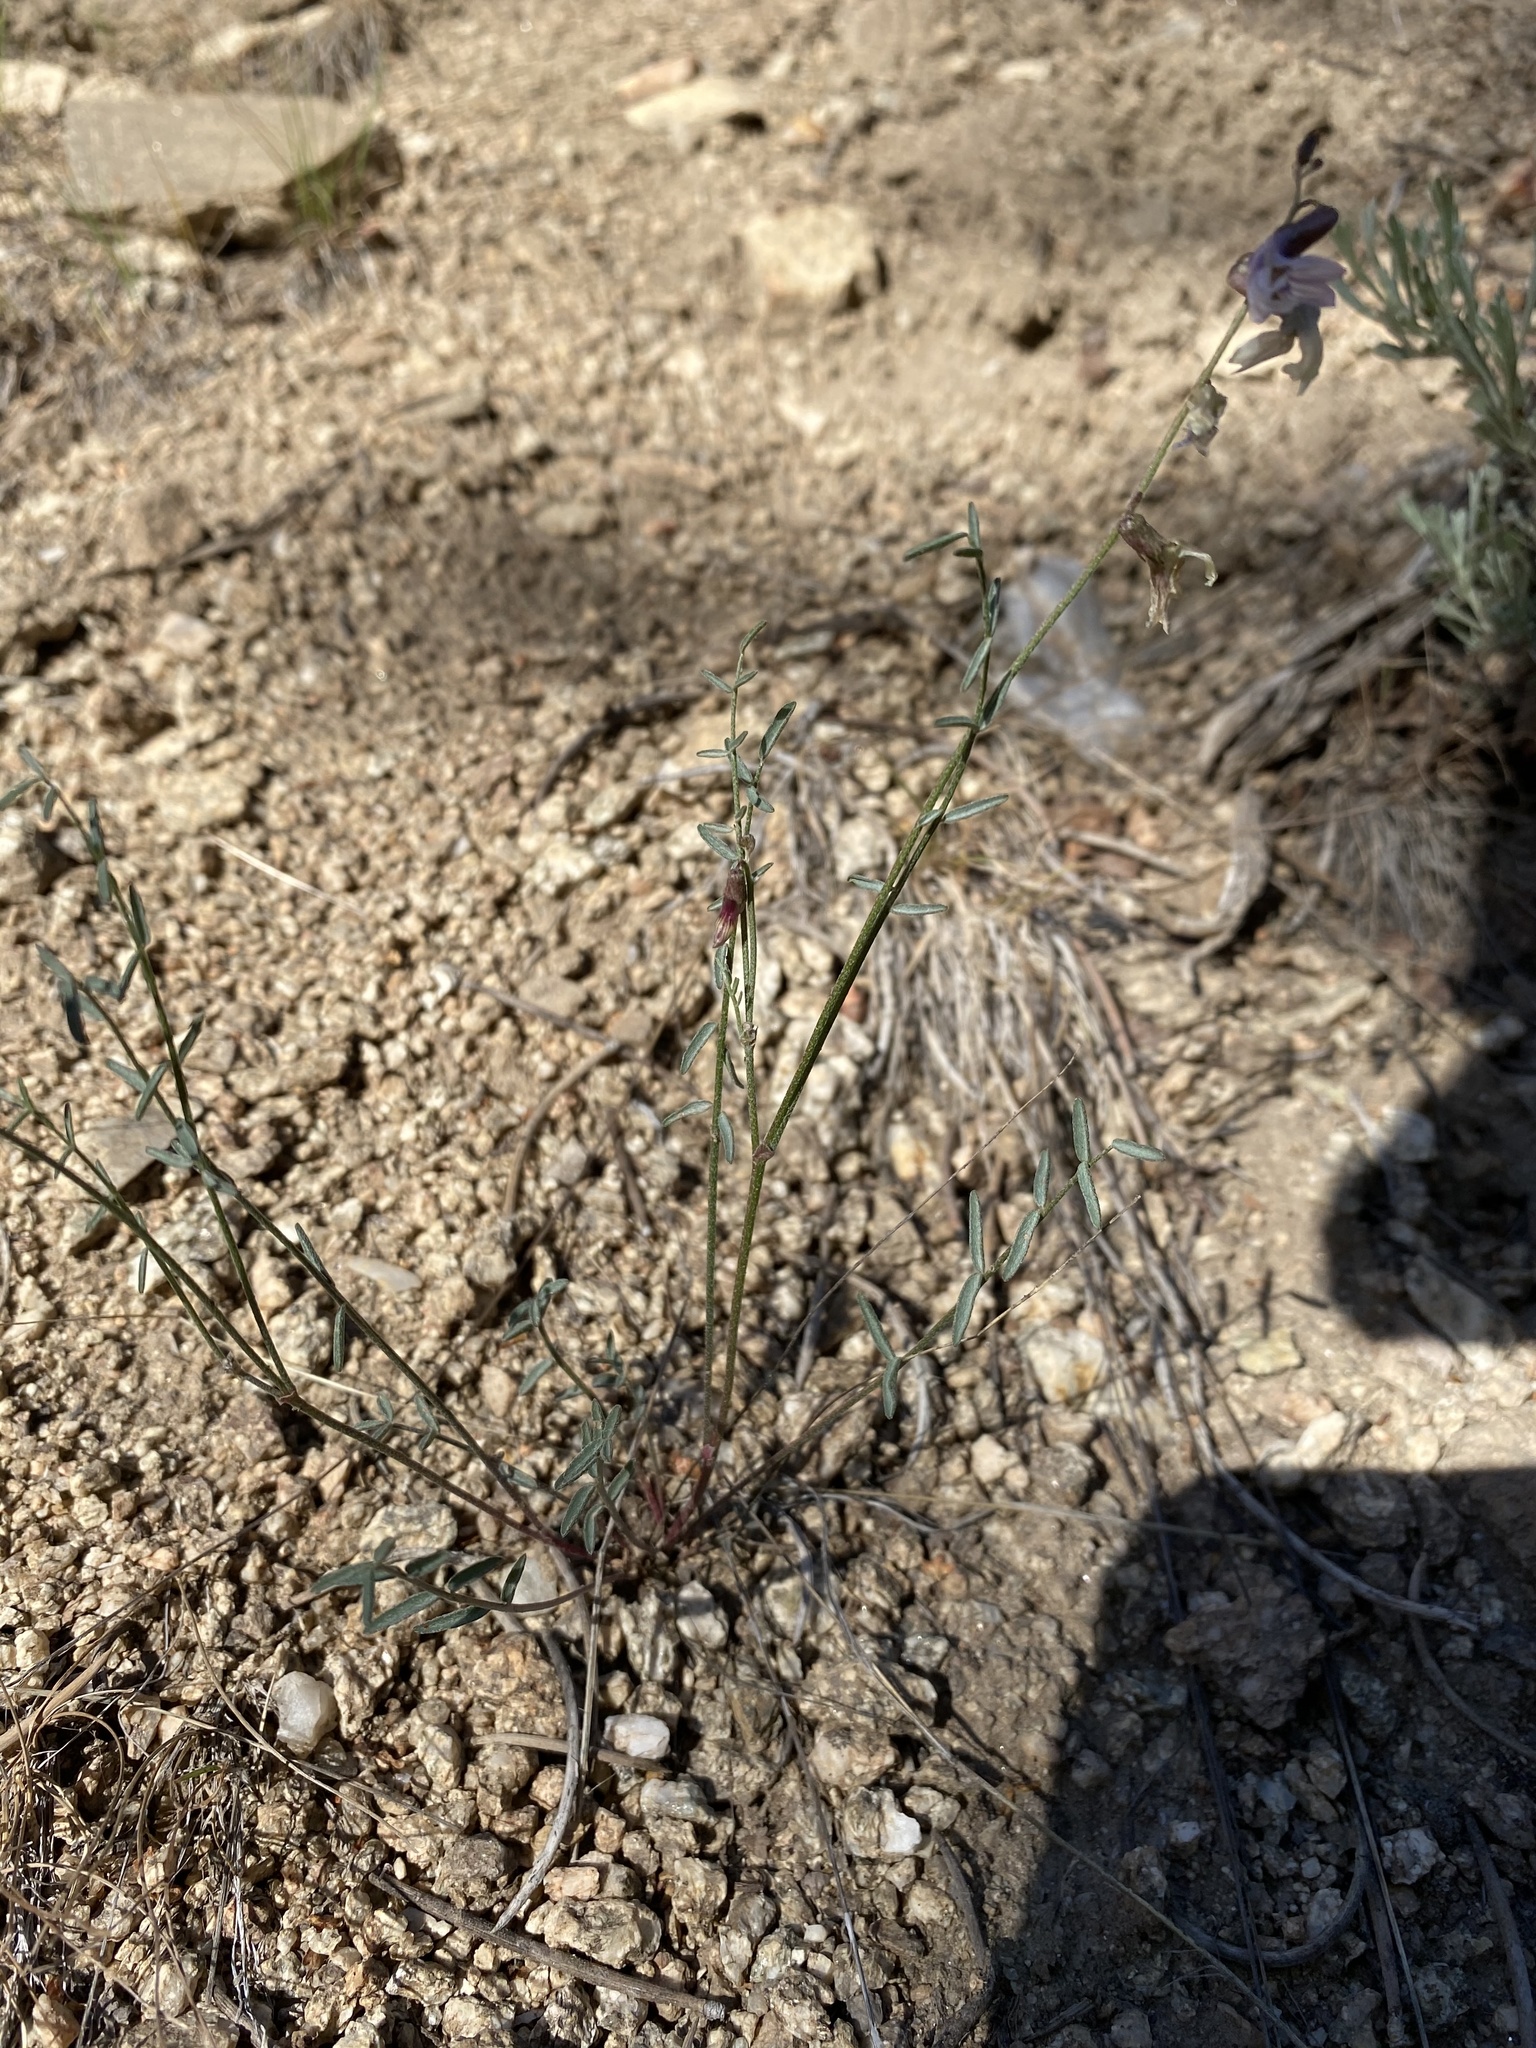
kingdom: Plantae
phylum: Tracheophyta
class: Magnoliopsida
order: Fabales
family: Fabaceae
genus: Astragalus
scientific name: Astragalus atratus
